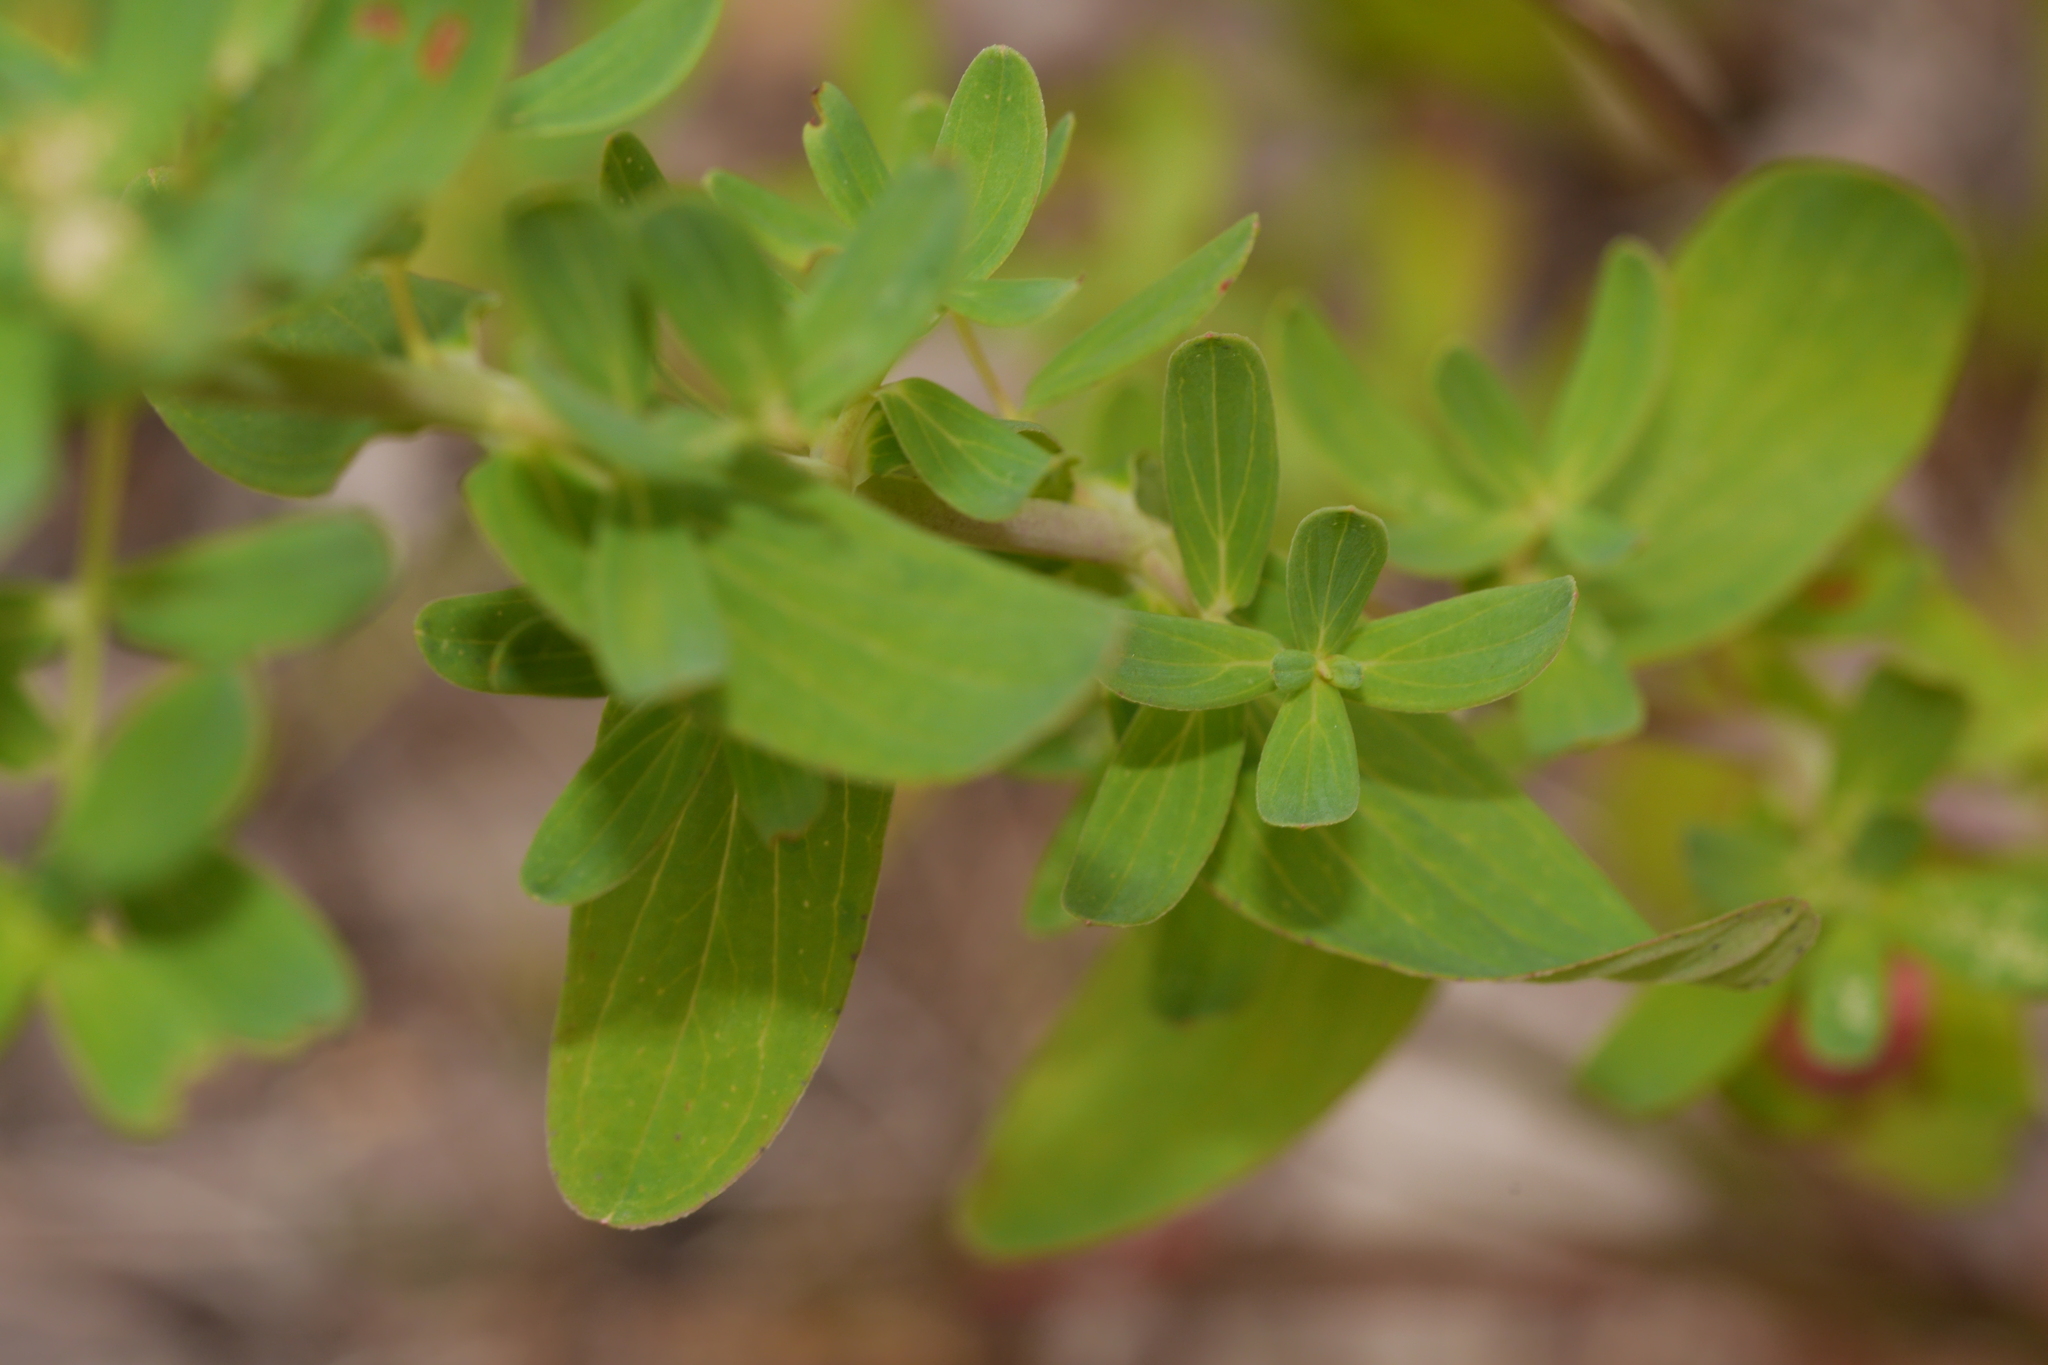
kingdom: Plantae
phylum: Tracheophyta
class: Magnoliopsida
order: Malpighiales
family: Hypericaceae
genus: Hypericum
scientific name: Hypericum perforatum
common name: Common st. johnswort
